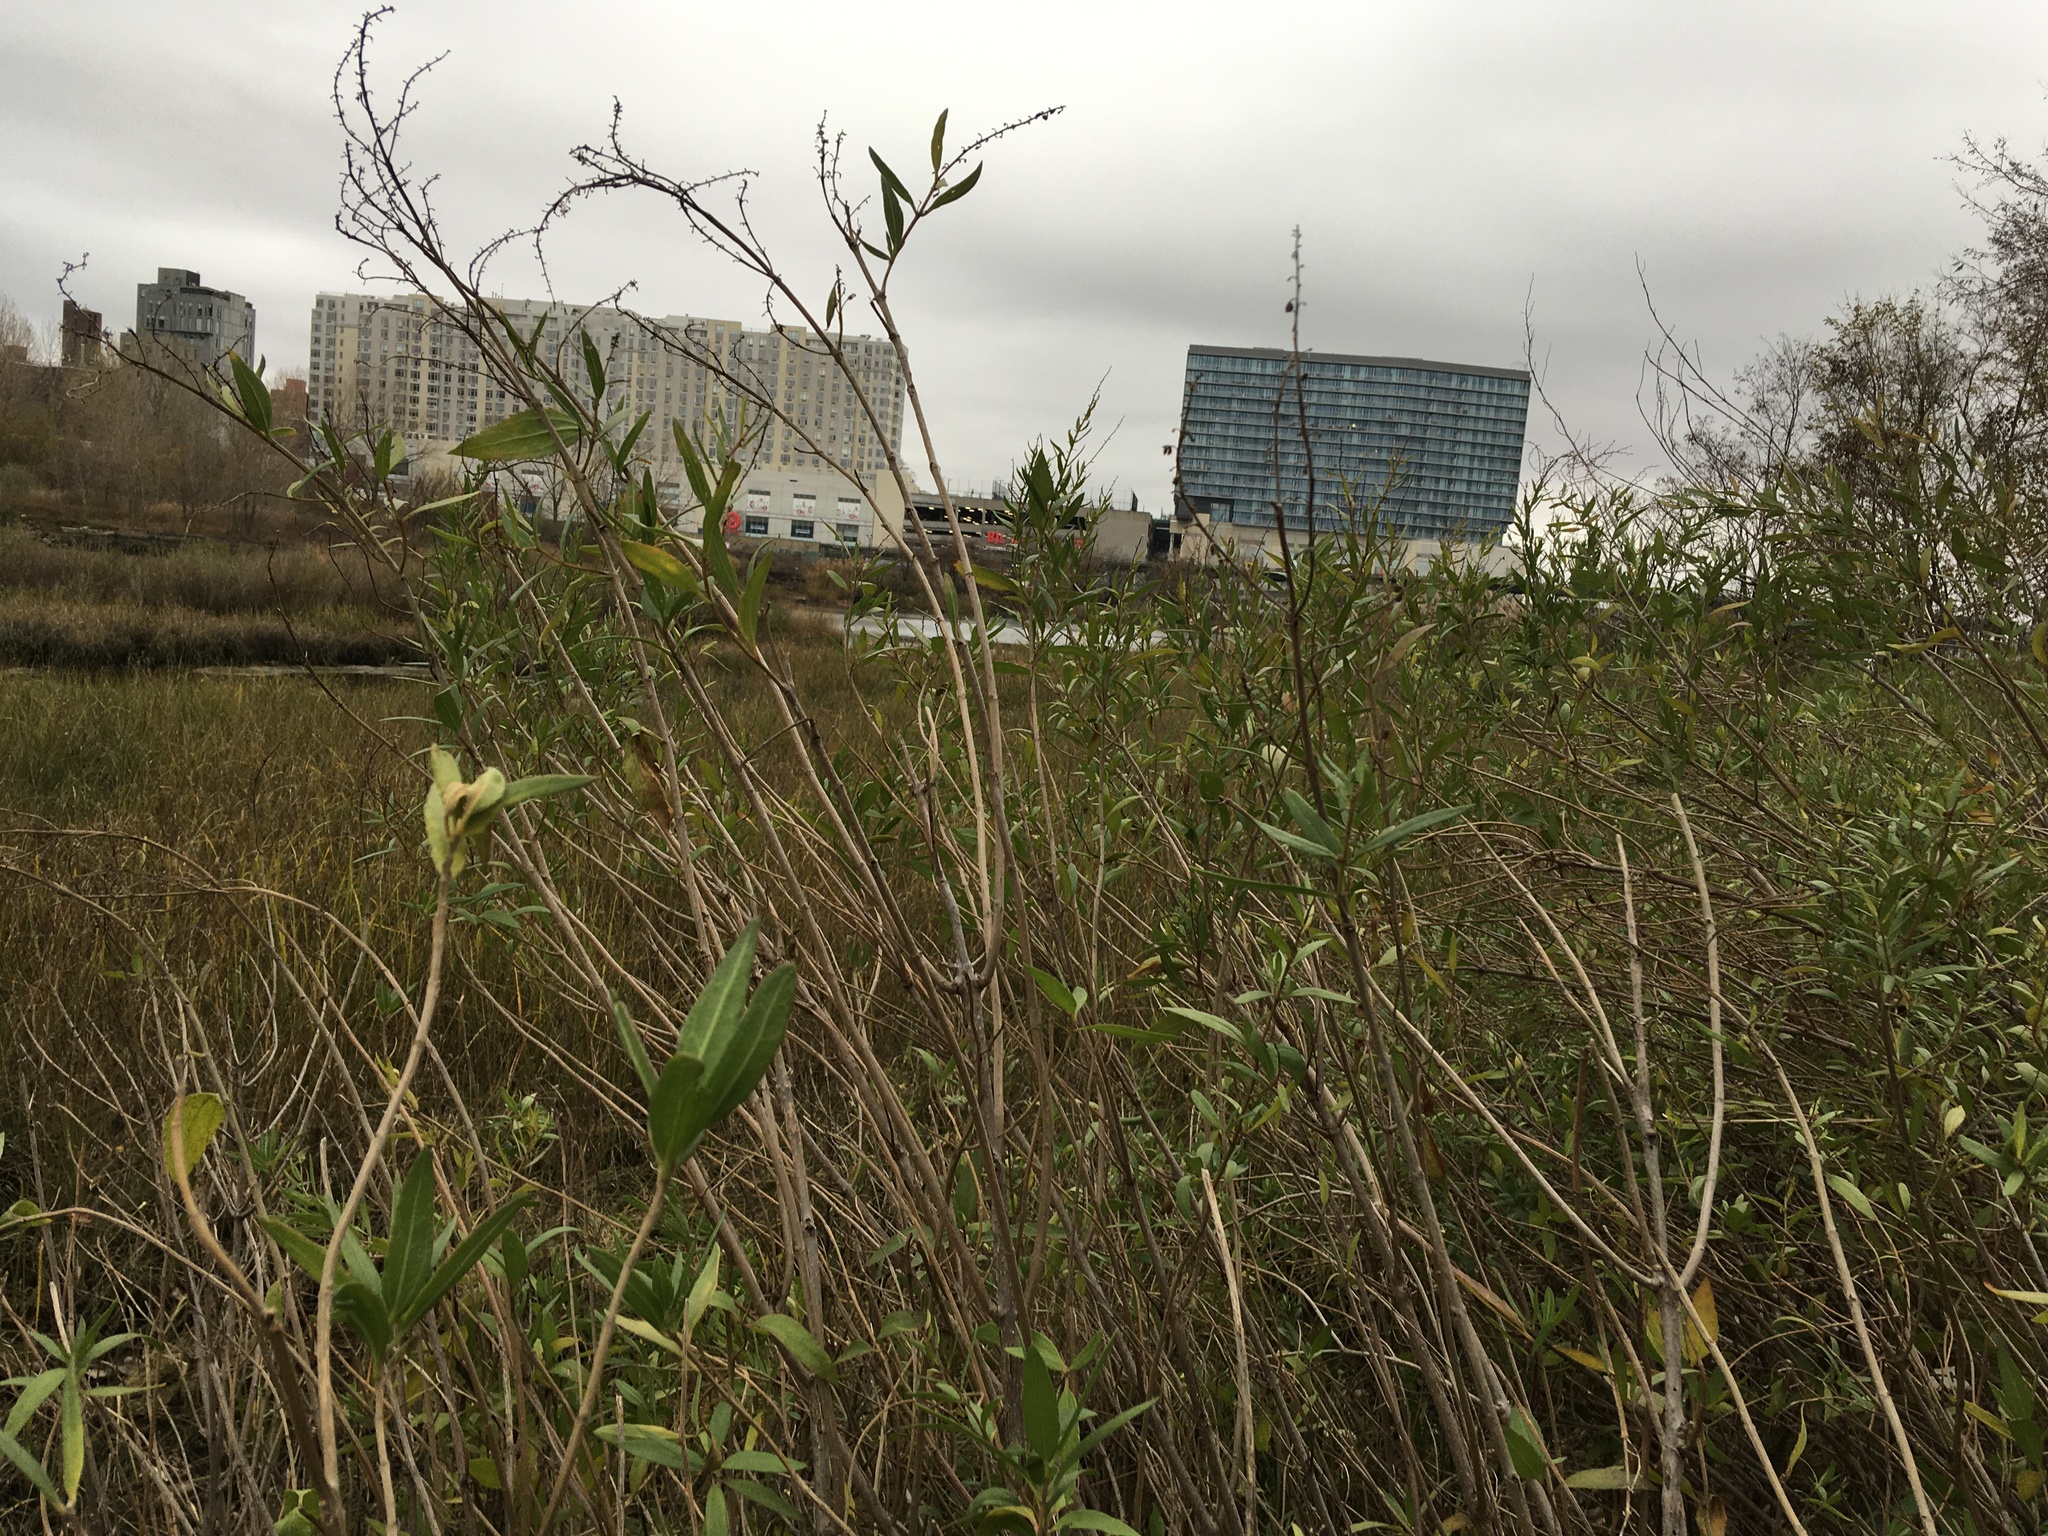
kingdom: Plantae
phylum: Tracheophyta
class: Magnoliopsida
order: Asterales
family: Asteraceae
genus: Iva
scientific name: Iva frutescens
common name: Big-leaved marsh-elder
